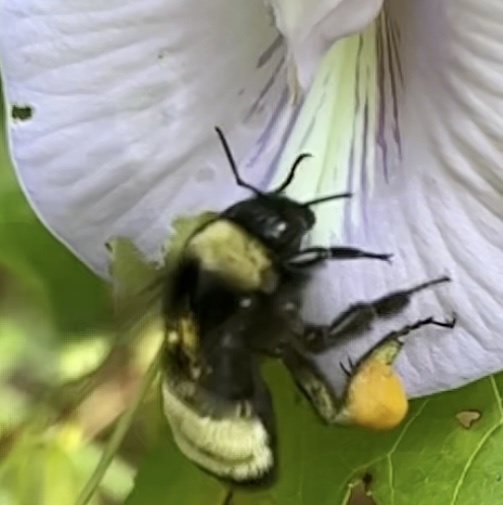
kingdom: Animalia
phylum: Arthropoda
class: Insecta
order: Hymenoptera
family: Apidae
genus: Bombus
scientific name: Bombus pensylvanicus
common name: Bumble bee
